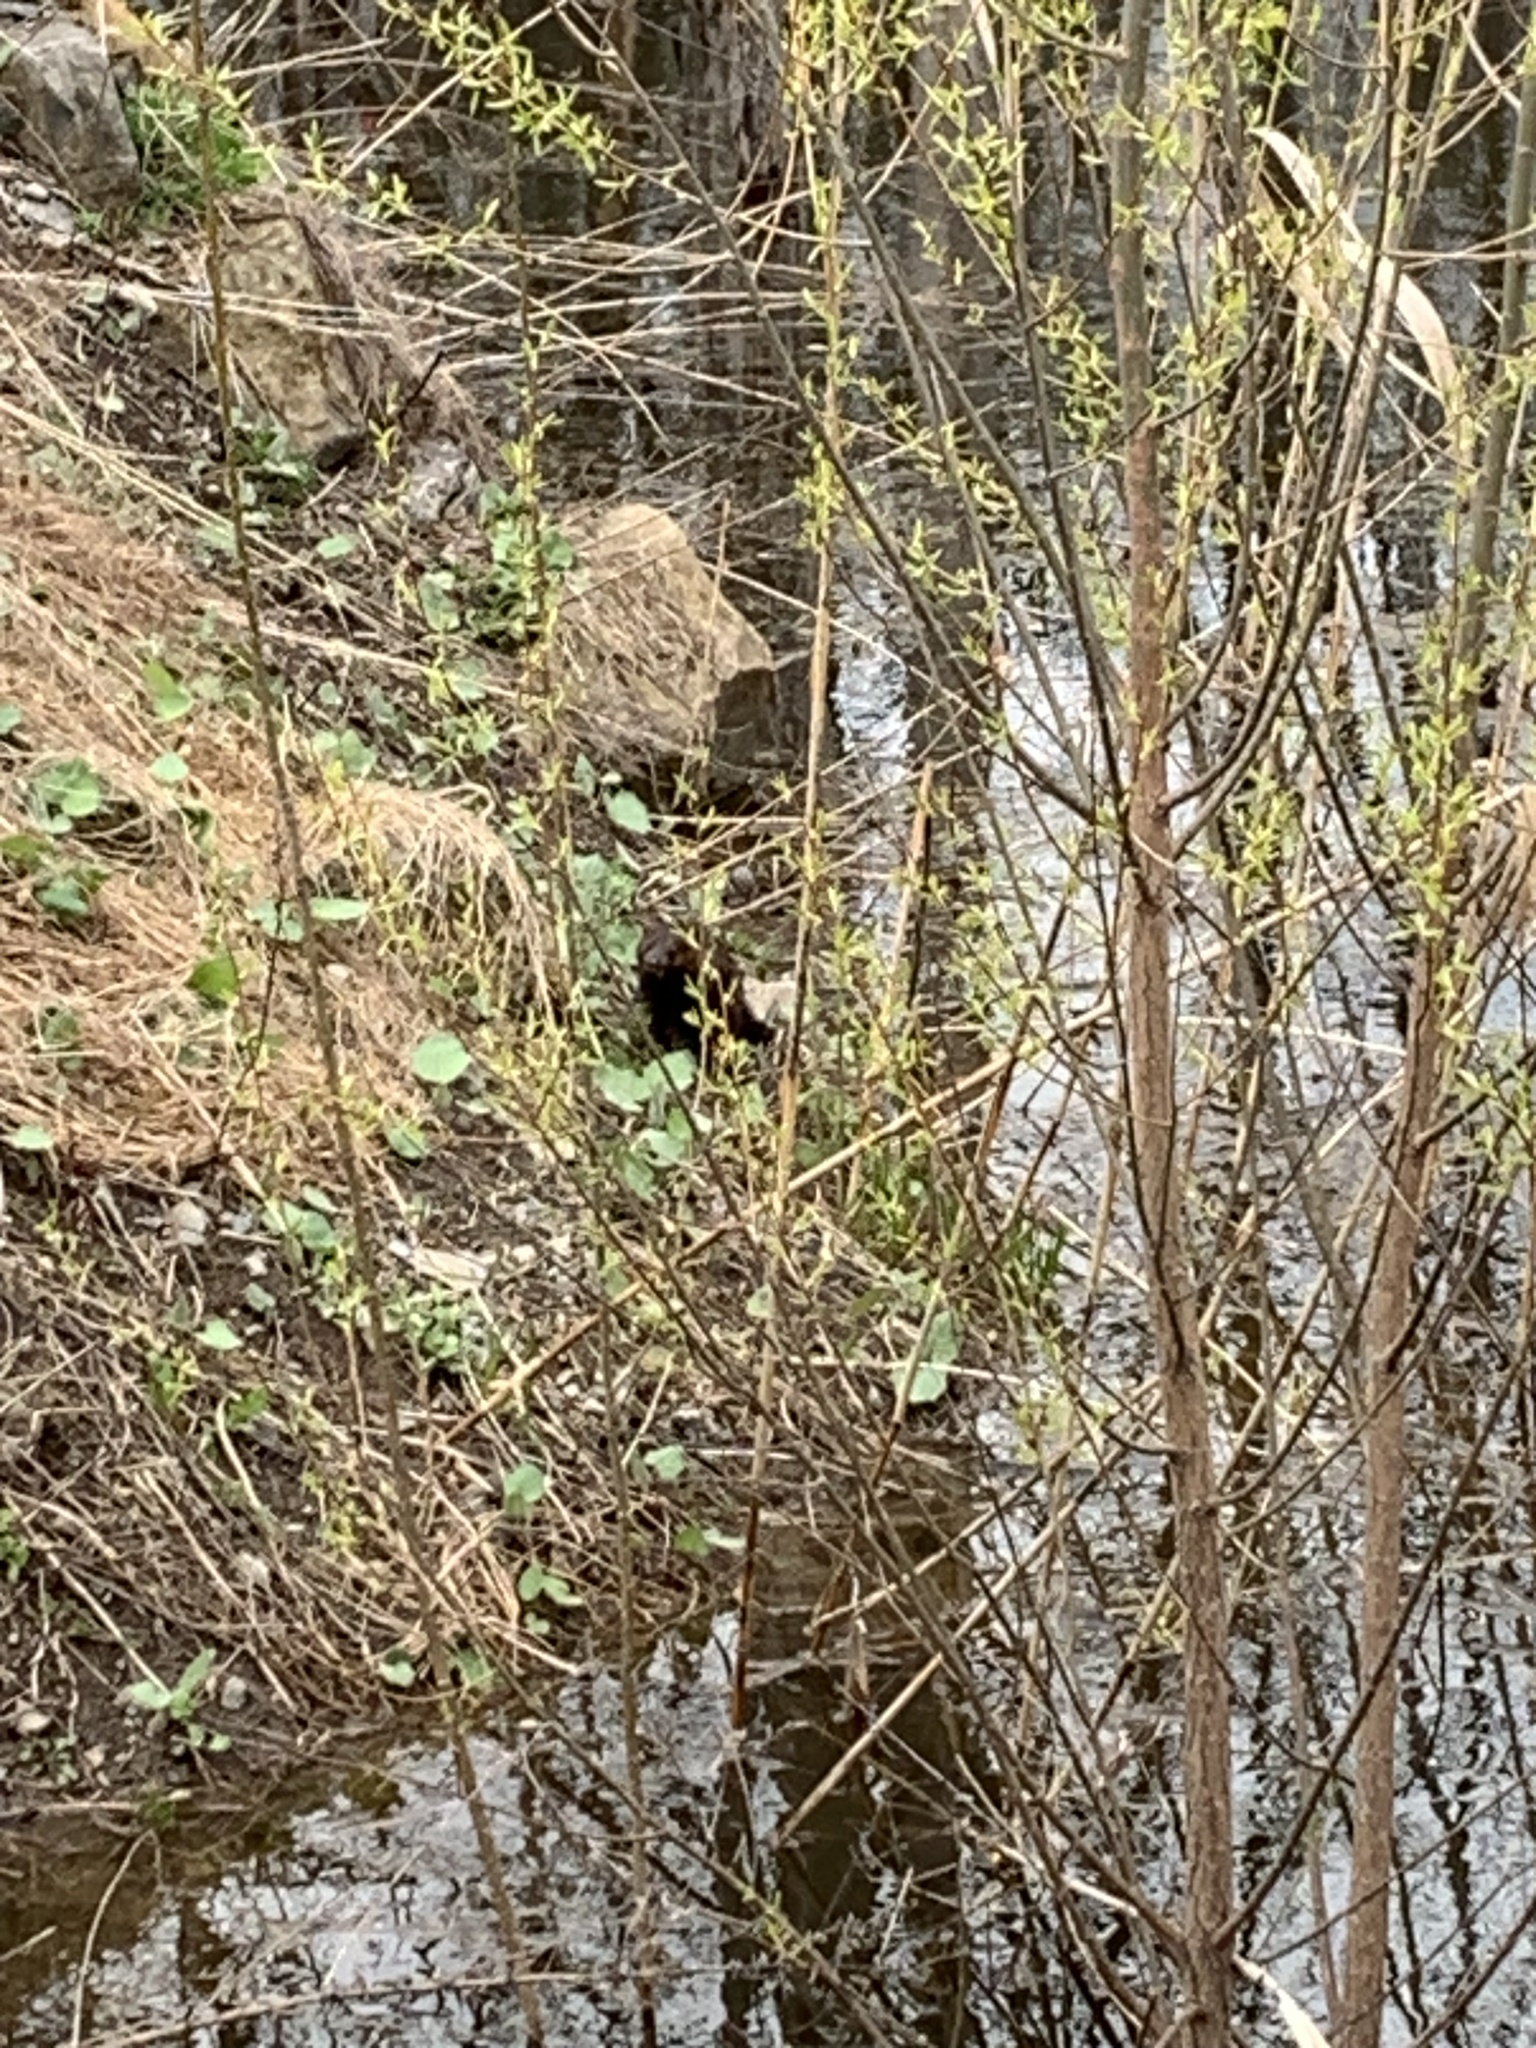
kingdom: Animalia
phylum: Chordata
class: Mammalia
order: Carnivora
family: Mustelidae
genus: Mustela
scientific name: Mustela
